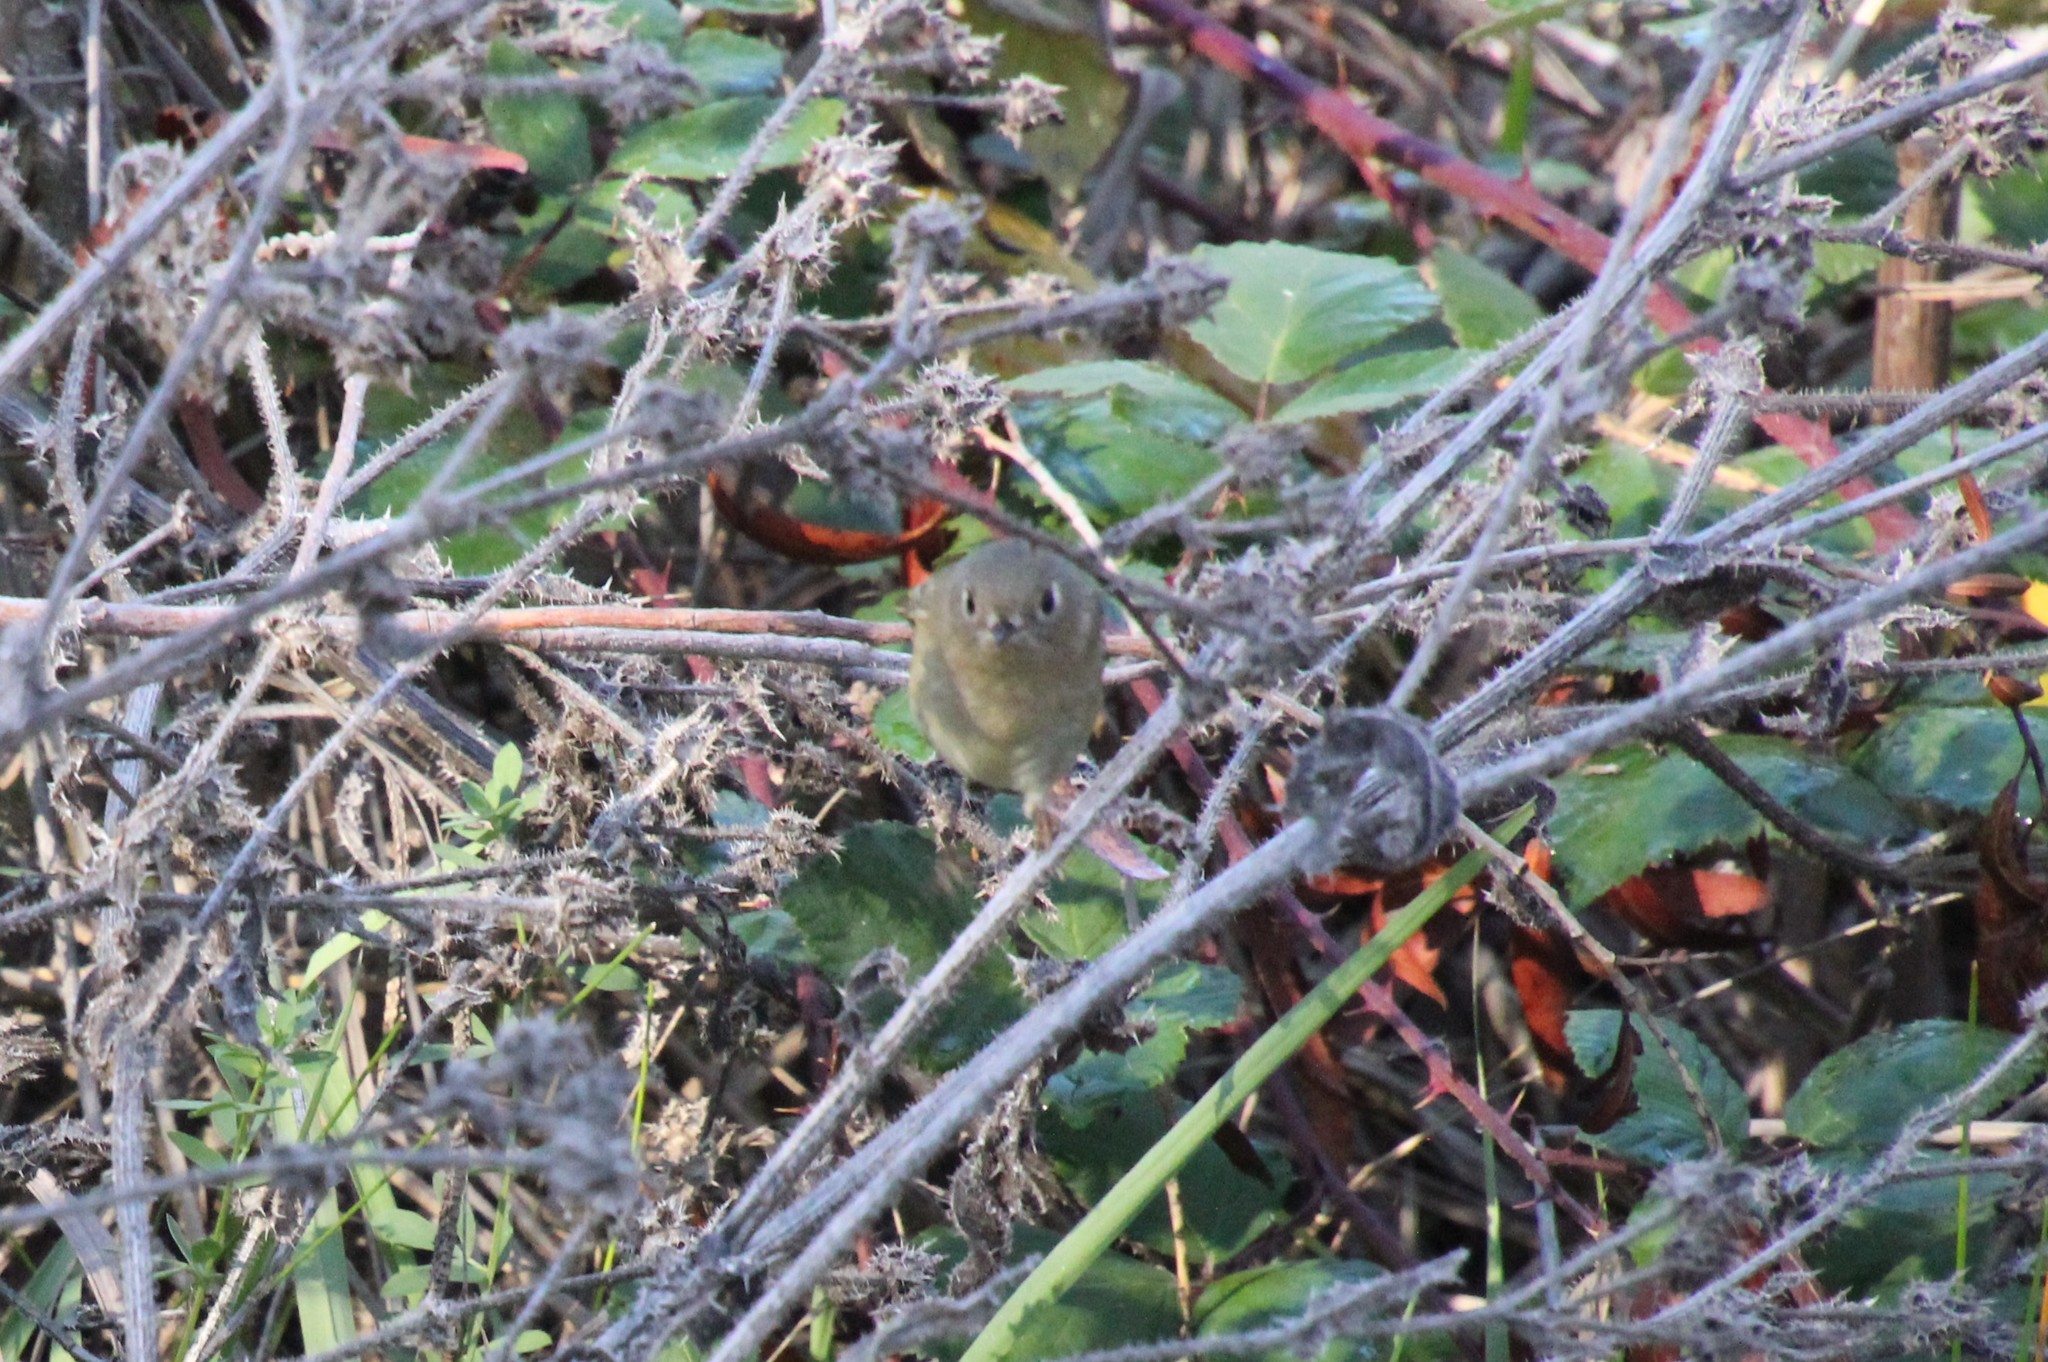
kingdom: Animalia
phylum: Chordata
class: Aves
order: Passeriformes
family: Regulidae
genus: Regulus
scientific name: Regulus calendula
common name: Ruby-crowned kinglet
